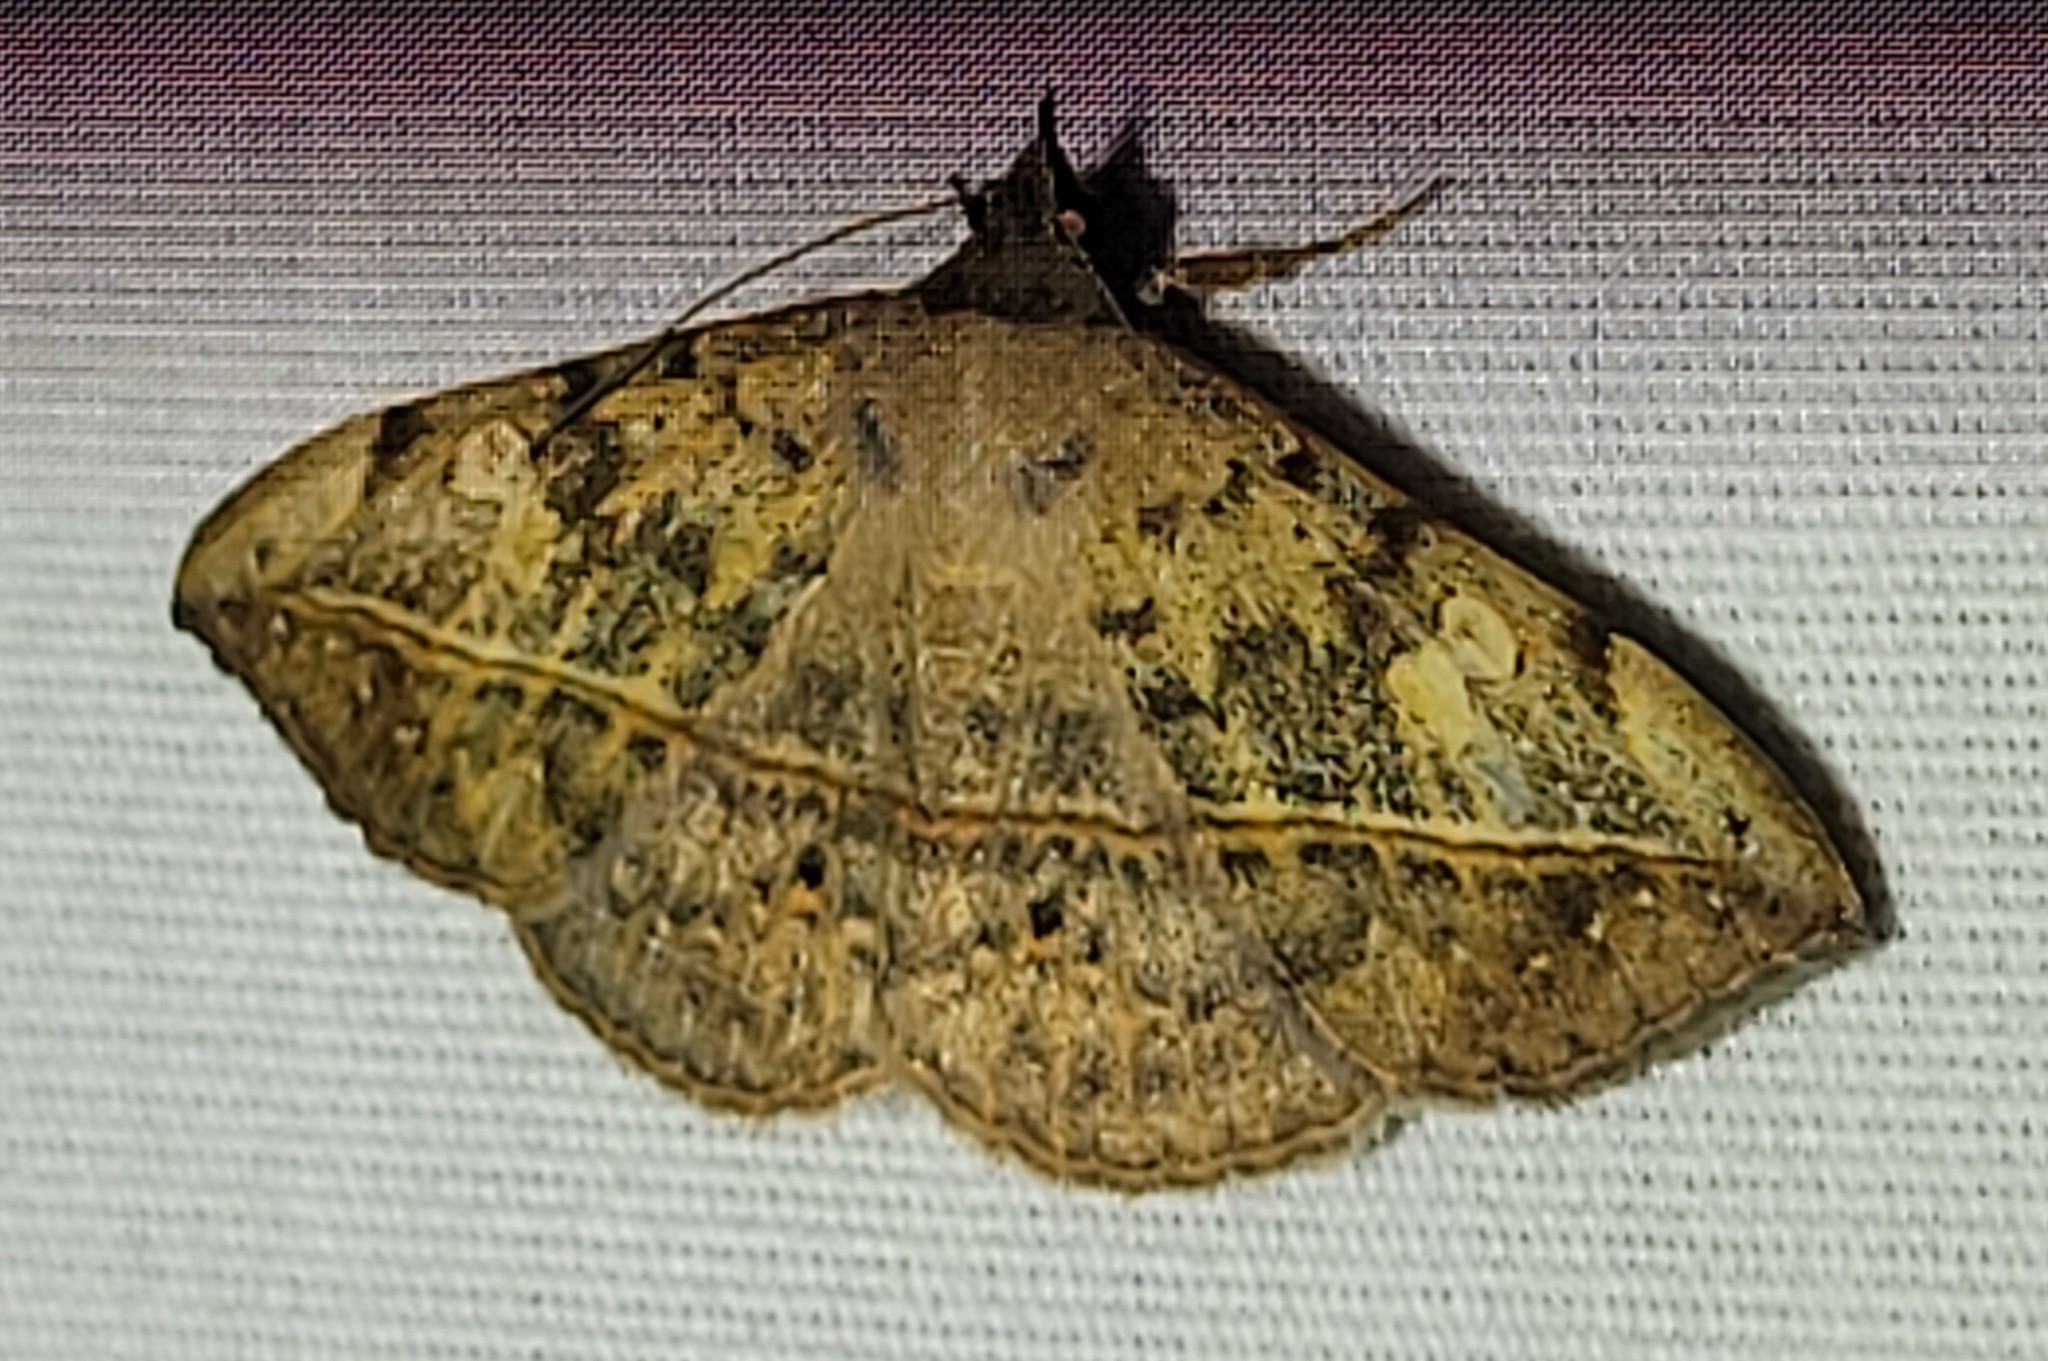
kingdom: Animalia
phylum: Arthropoda
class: Insecta
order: Lepidoptera
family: Erebidae
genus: Anticarsia
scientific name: Anticarsia gemmatalis
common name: Cutworm moth
